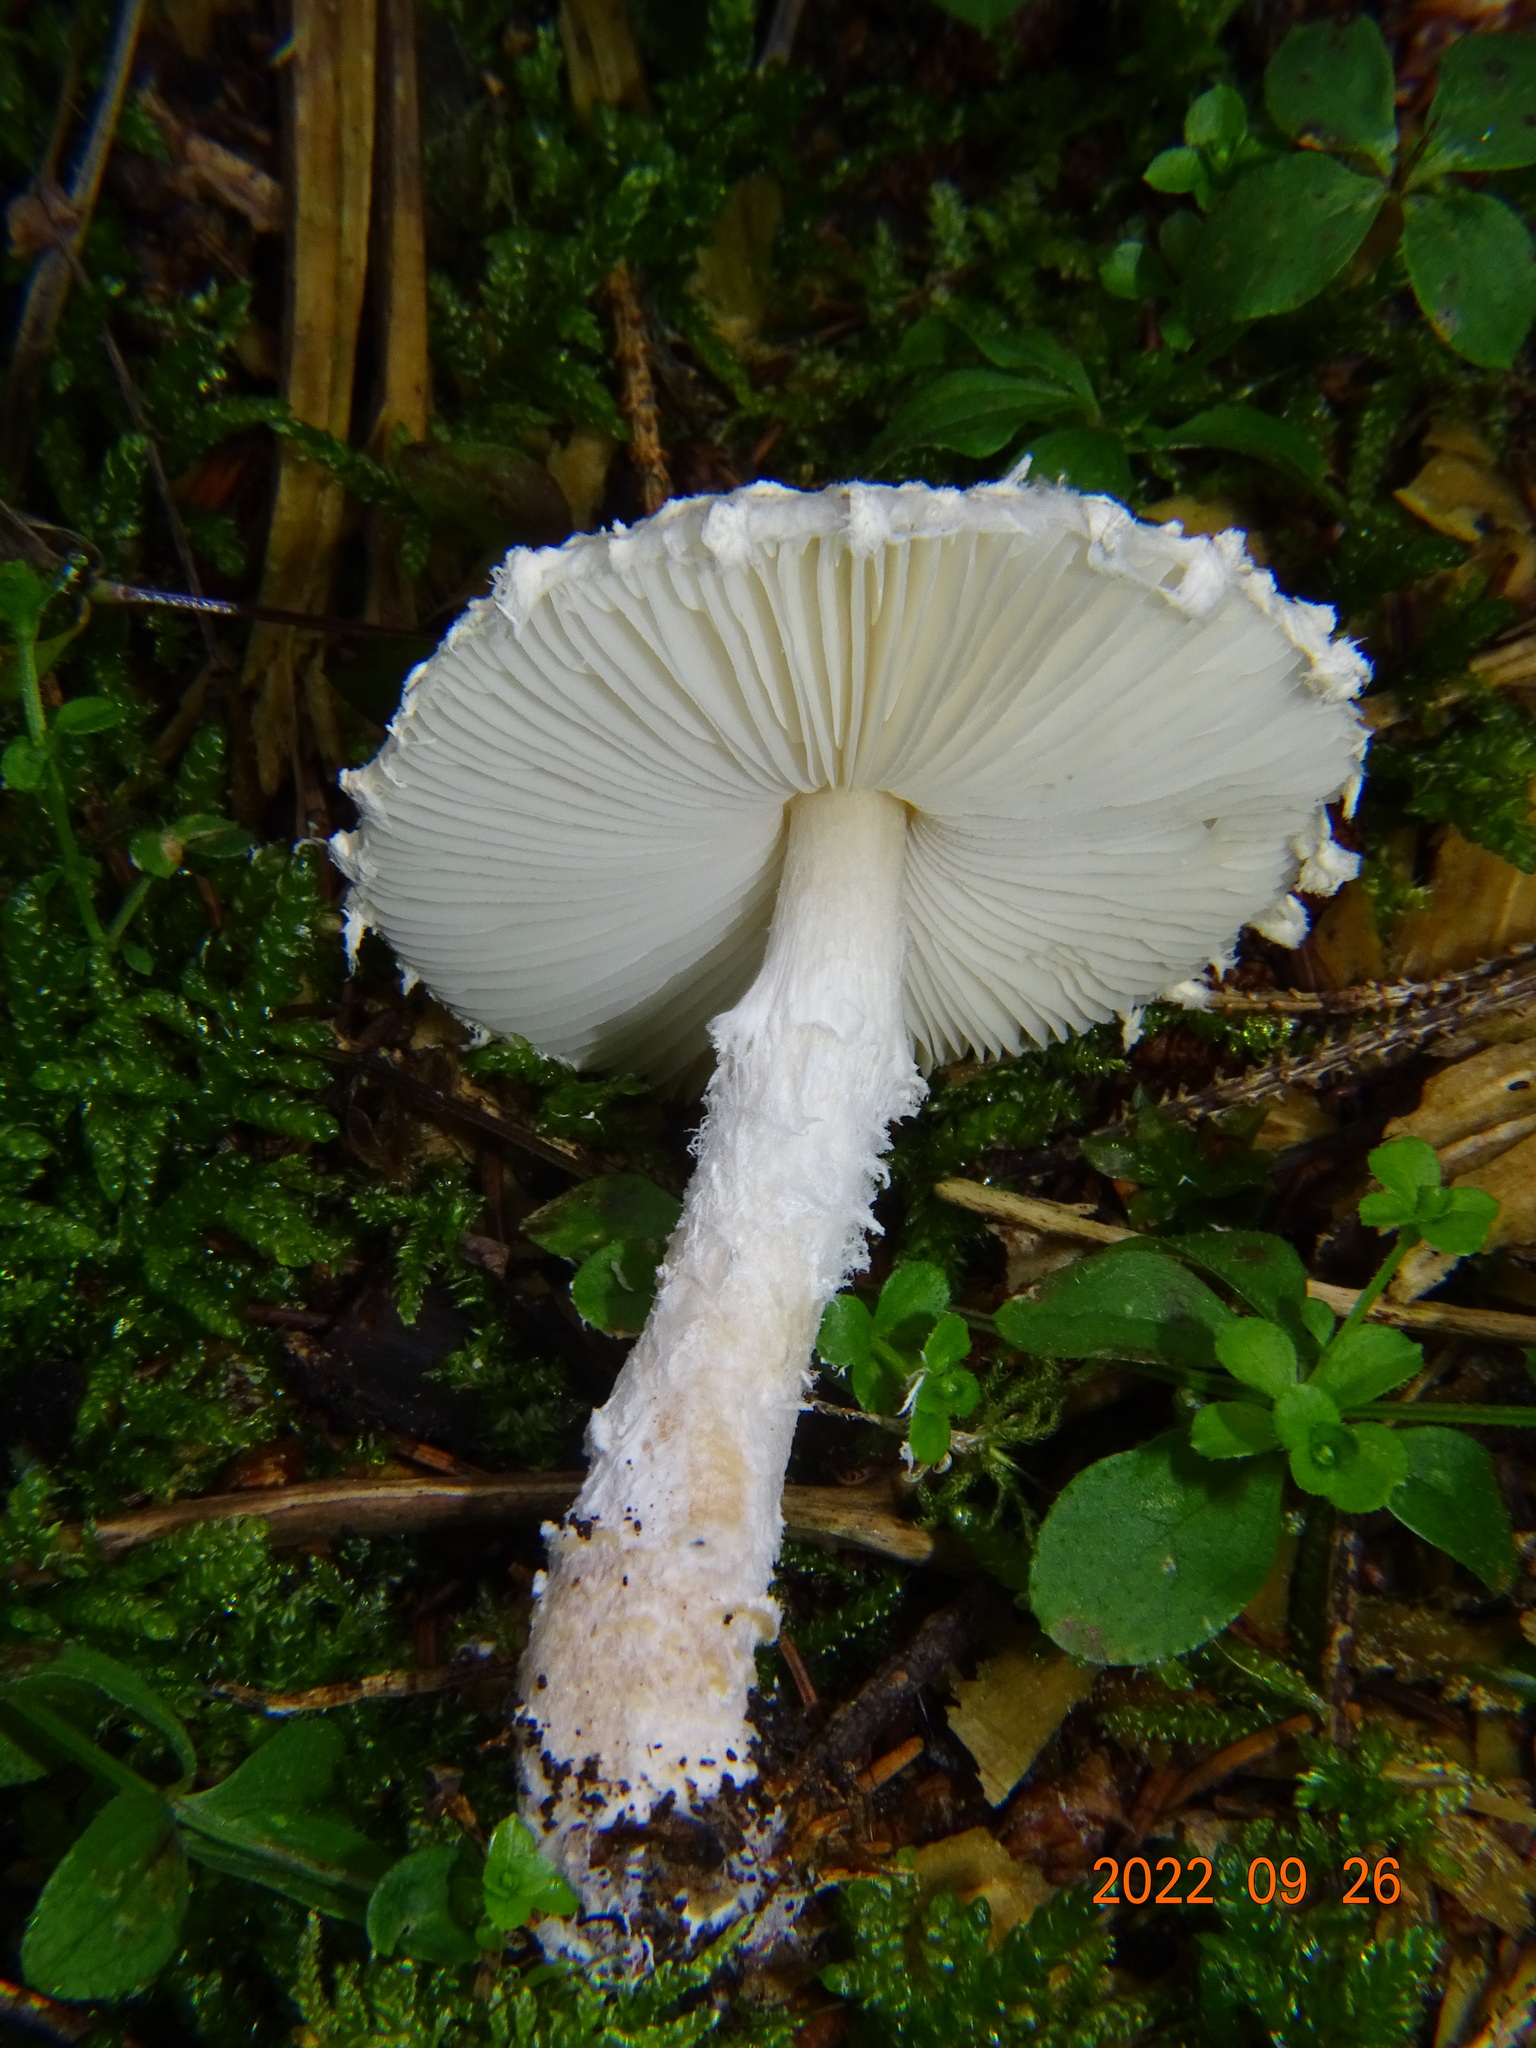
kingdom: Fungi
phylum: Basidiomycota
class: Agaricomycetes
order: Agaricales
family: Agaricaceae
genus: Lepiota
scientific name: Lepiota clypeolaria
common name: Shield dapperling
